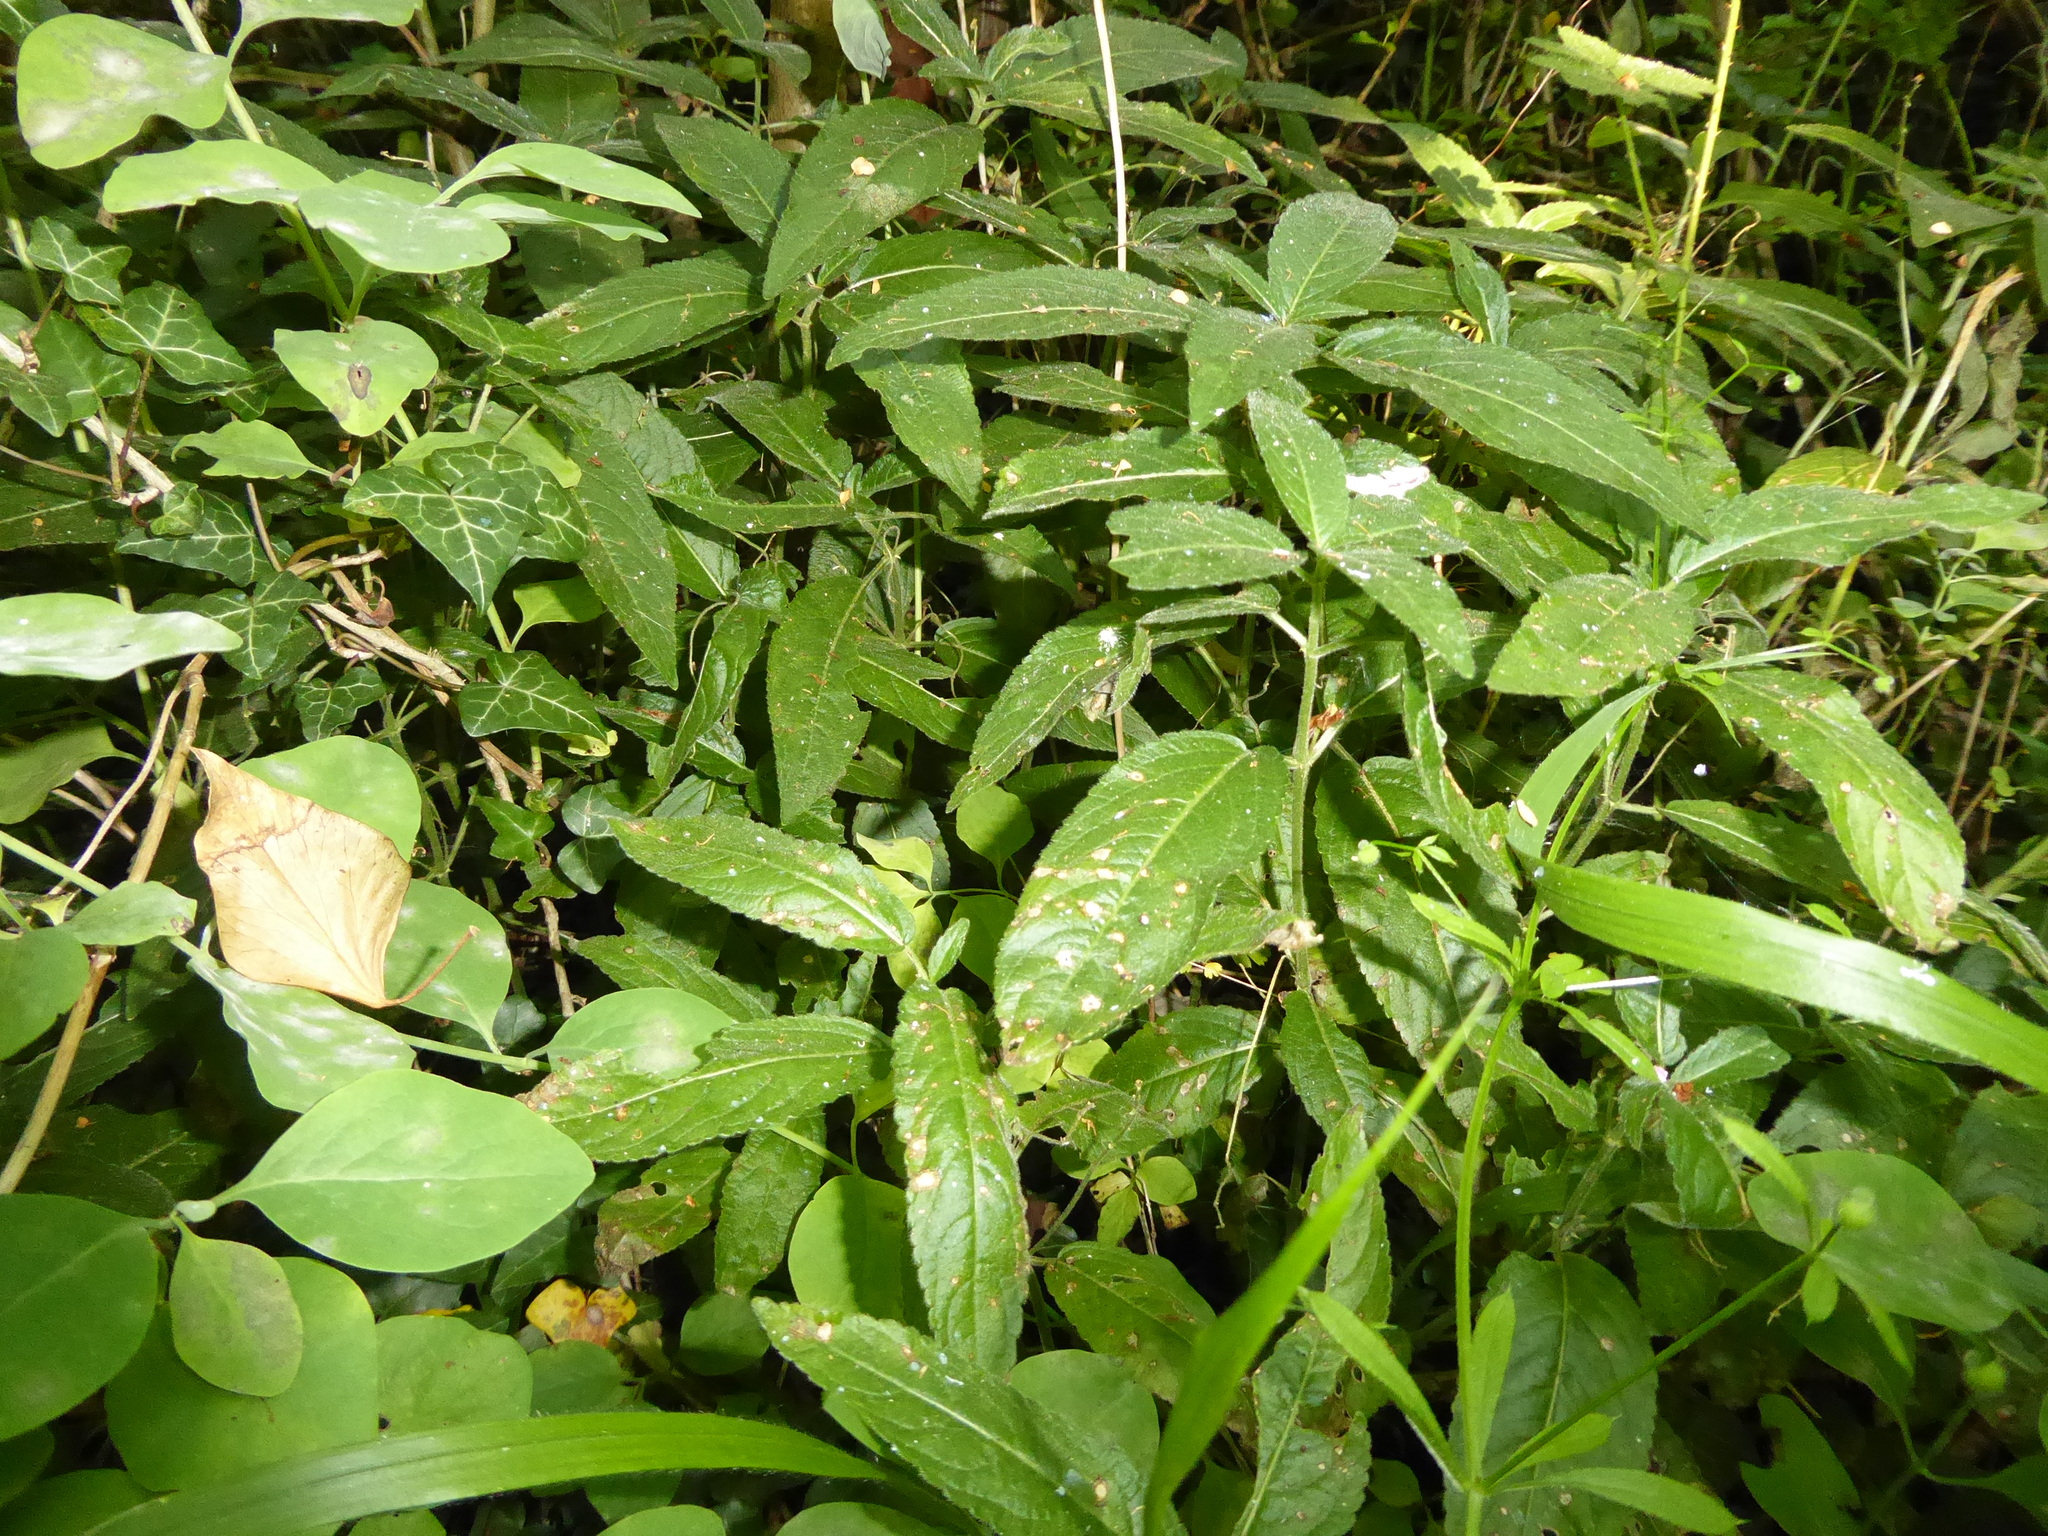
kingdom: Plantae
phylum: Tracheophyta
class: Magnoliopsida
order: Malpighiales
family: Euphorbiaceae
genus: Mercurialis
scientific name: Mercurialis perennis
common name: Dog mercury
